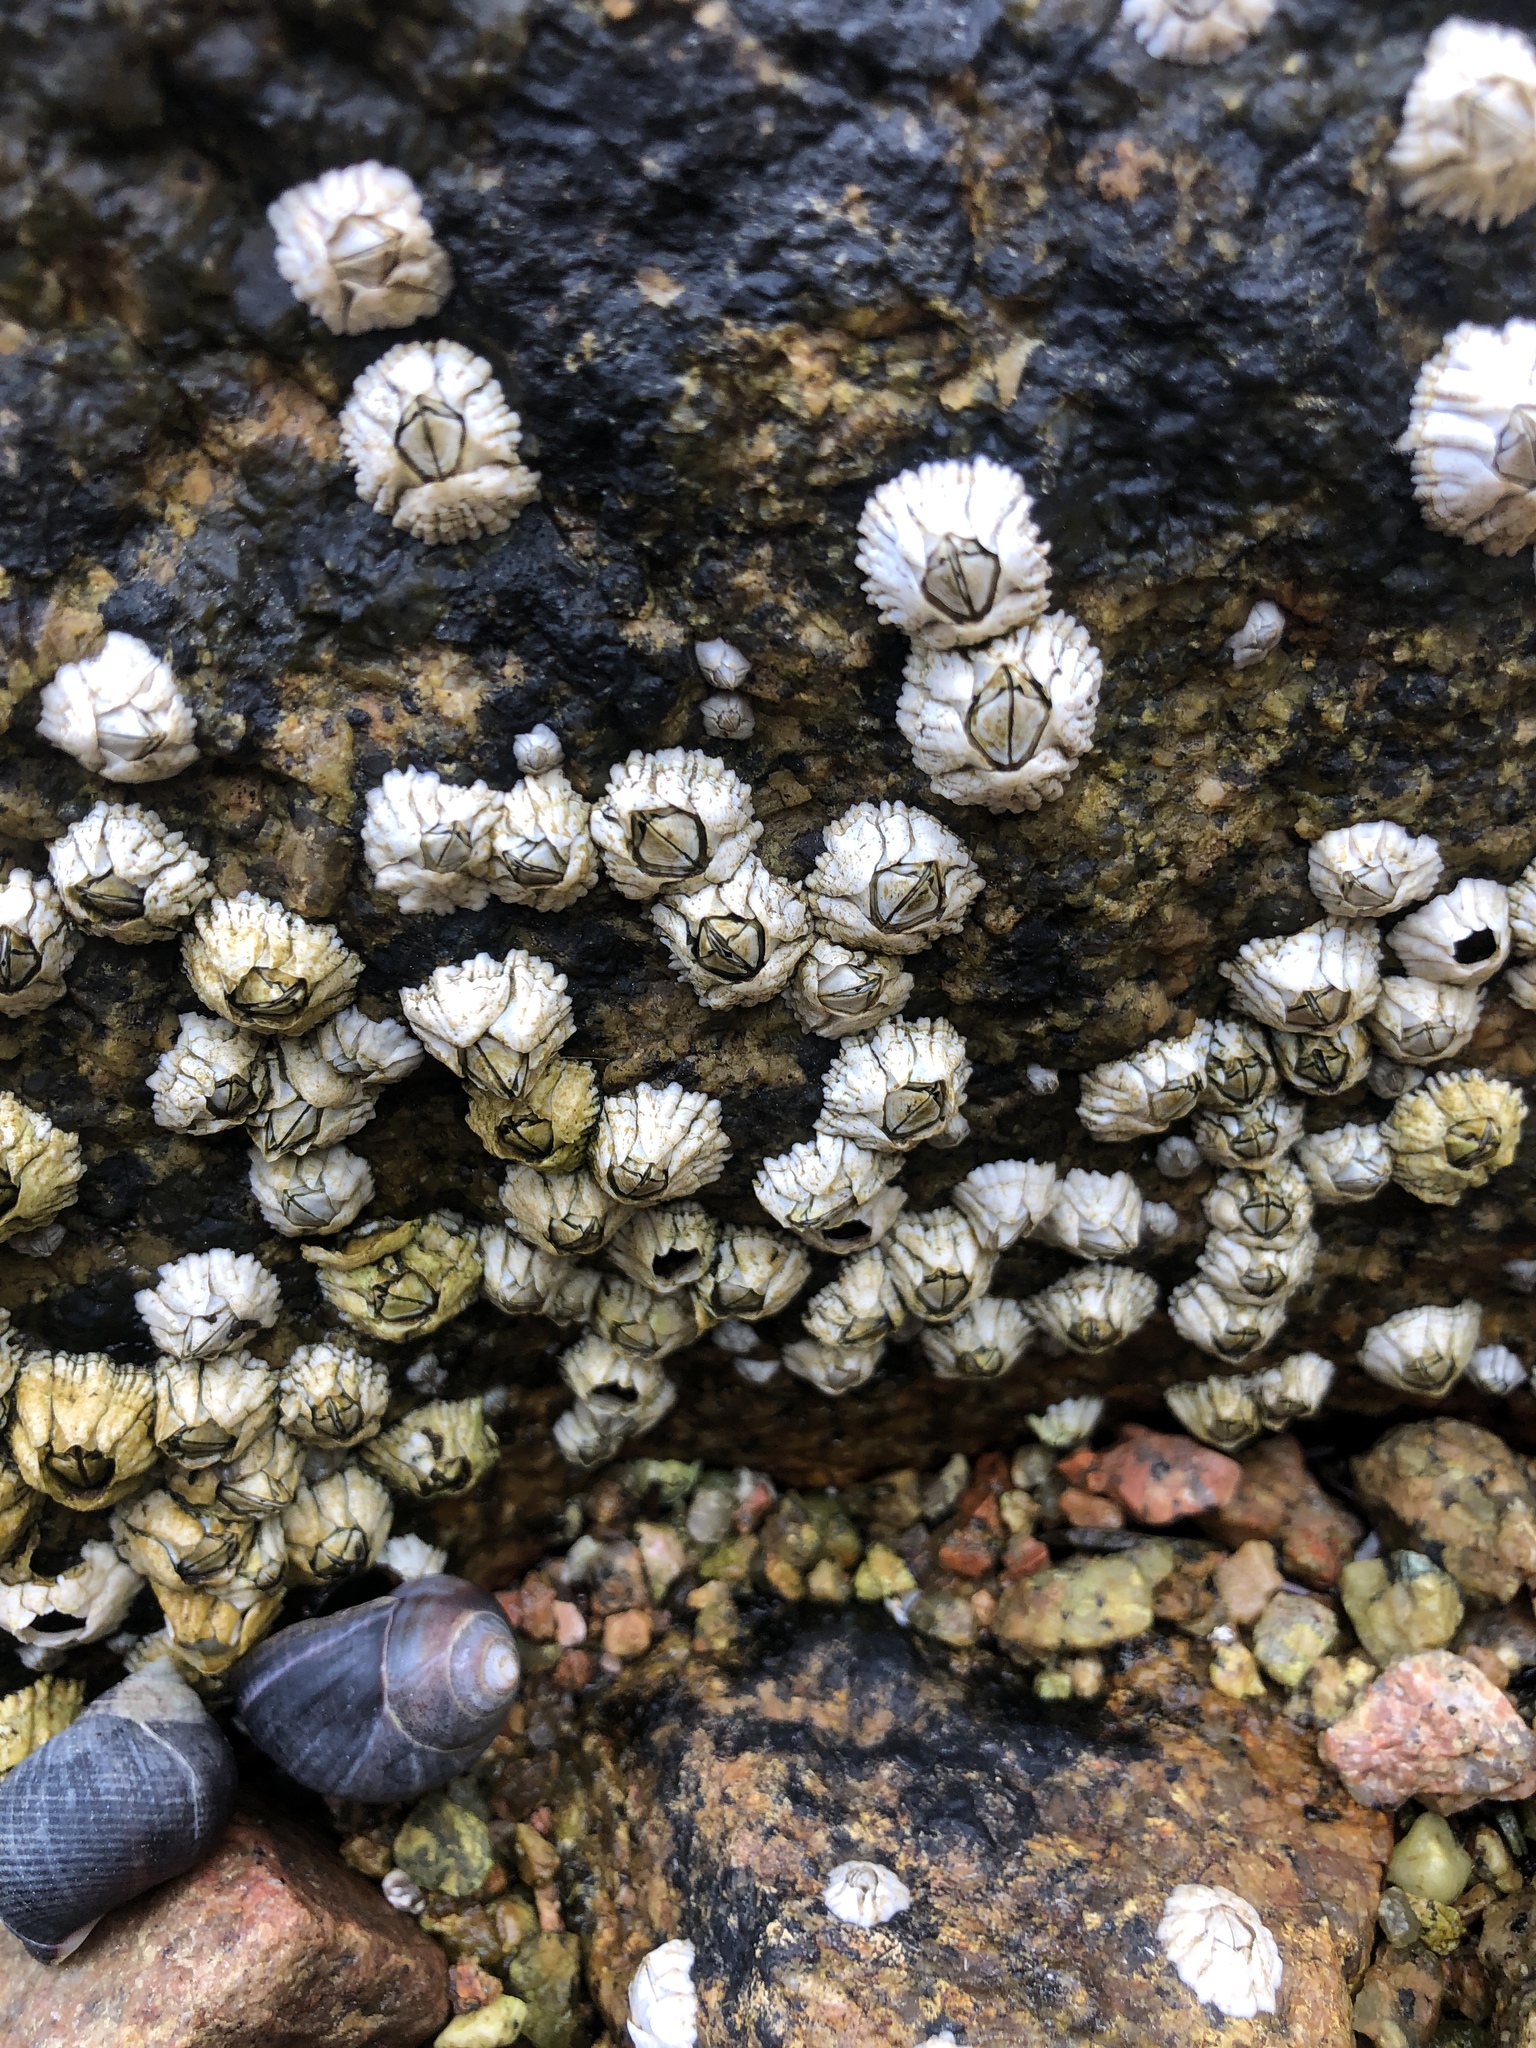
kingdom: Animalia
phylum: Arthropoda
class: Maxillopoda
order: Sessilia
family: Archaeobalanidae
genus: Semibalanus
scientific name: Semibalanus balanoides
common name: Acorn barnacle
